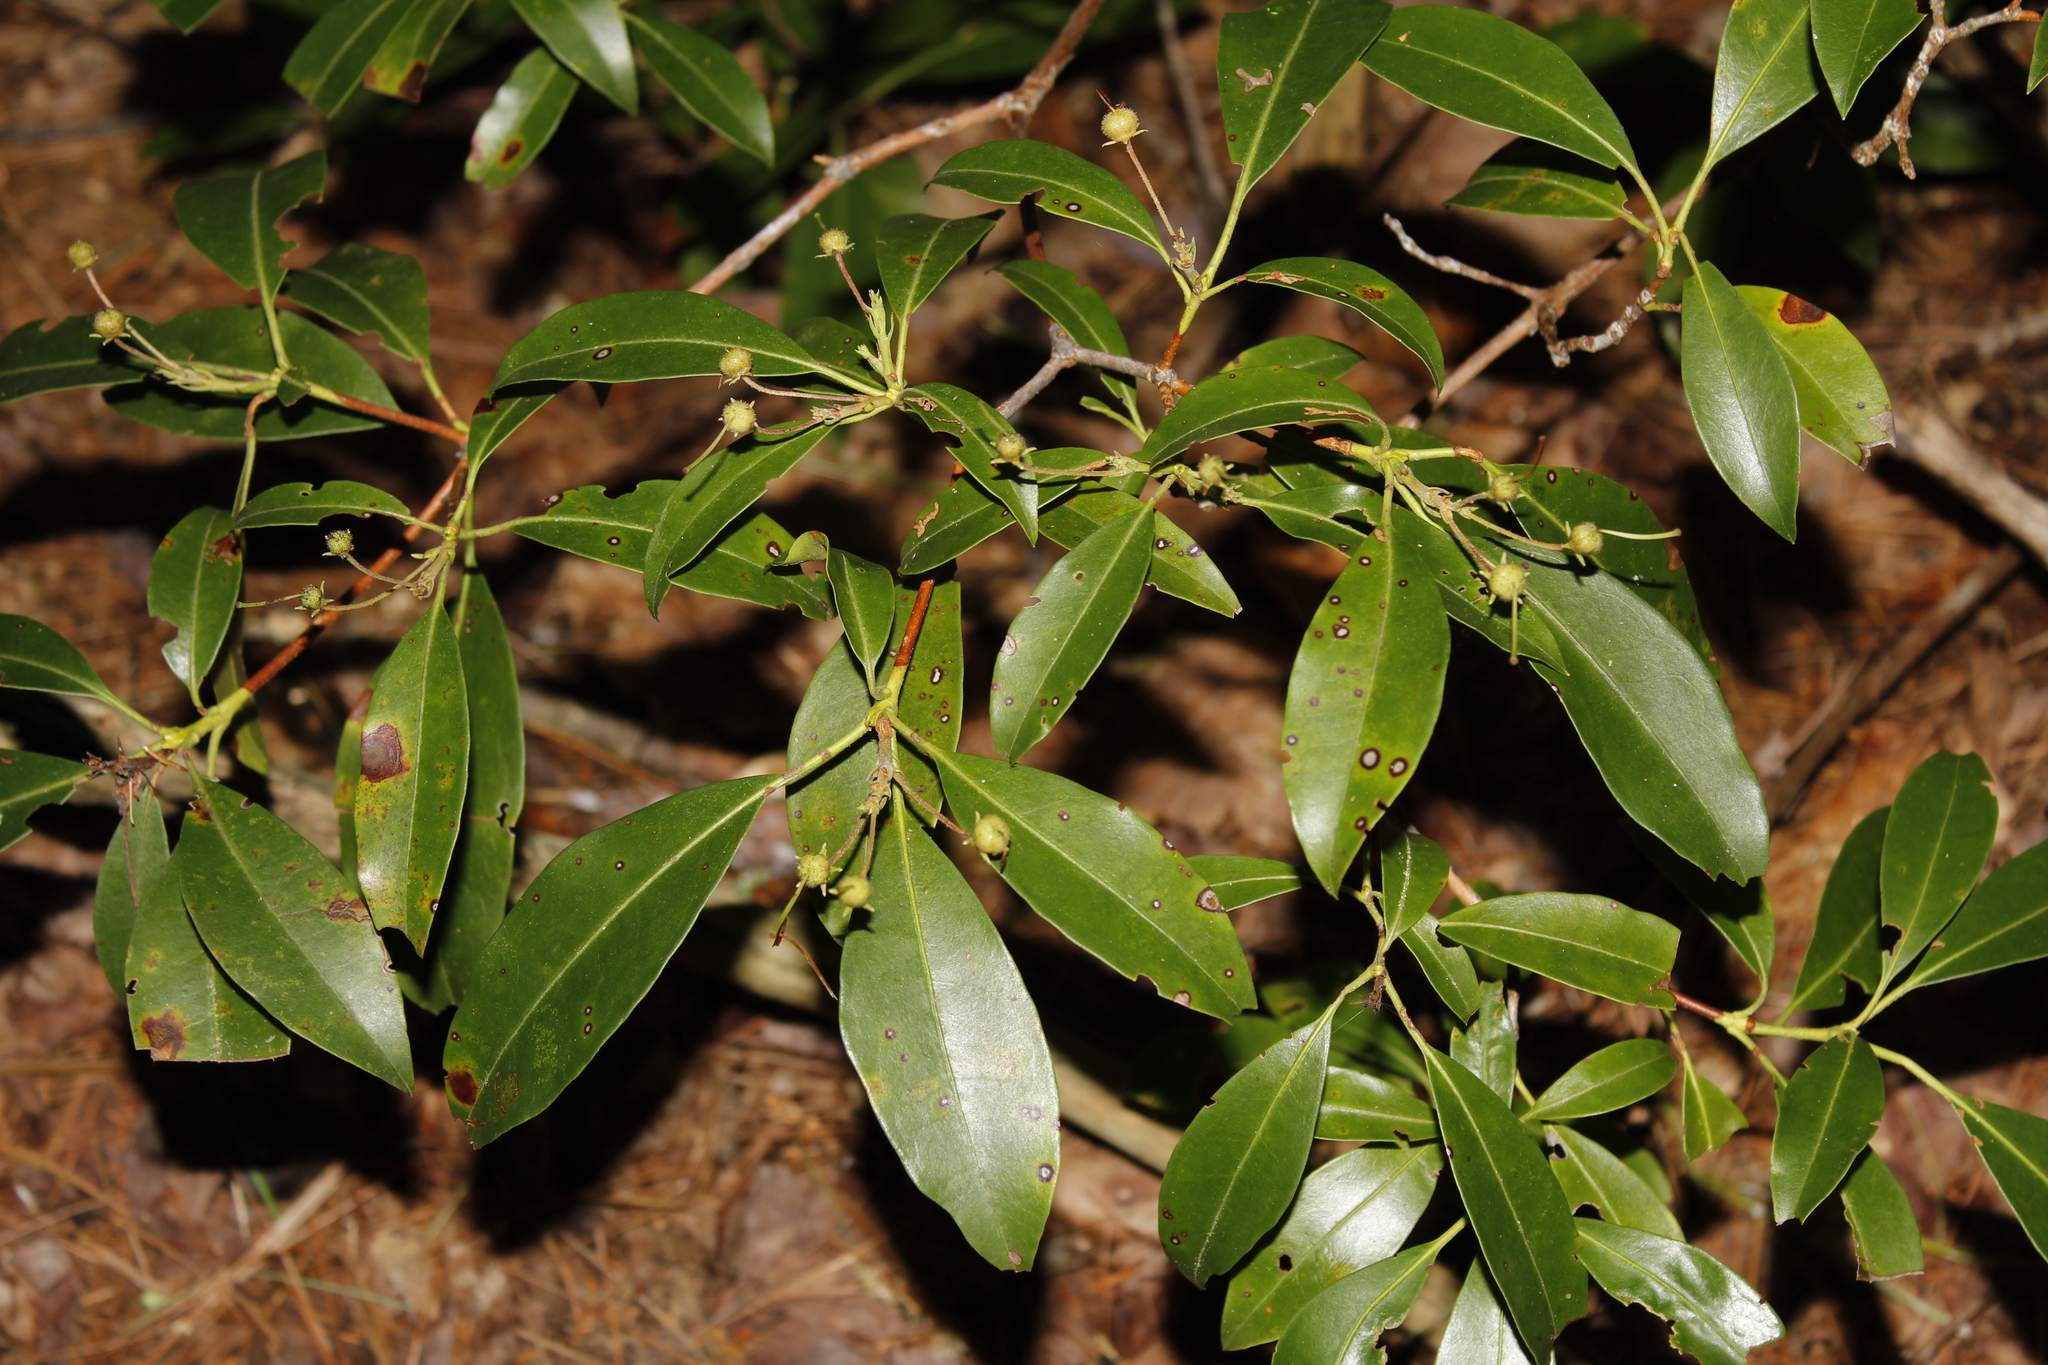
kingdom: Plantae
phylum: Tracheophyta
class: Magnoliopsida
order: Ericales
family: Ericaceae
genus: Kalmia
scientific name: Kalmia latifolia
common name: Mountain-laurel
